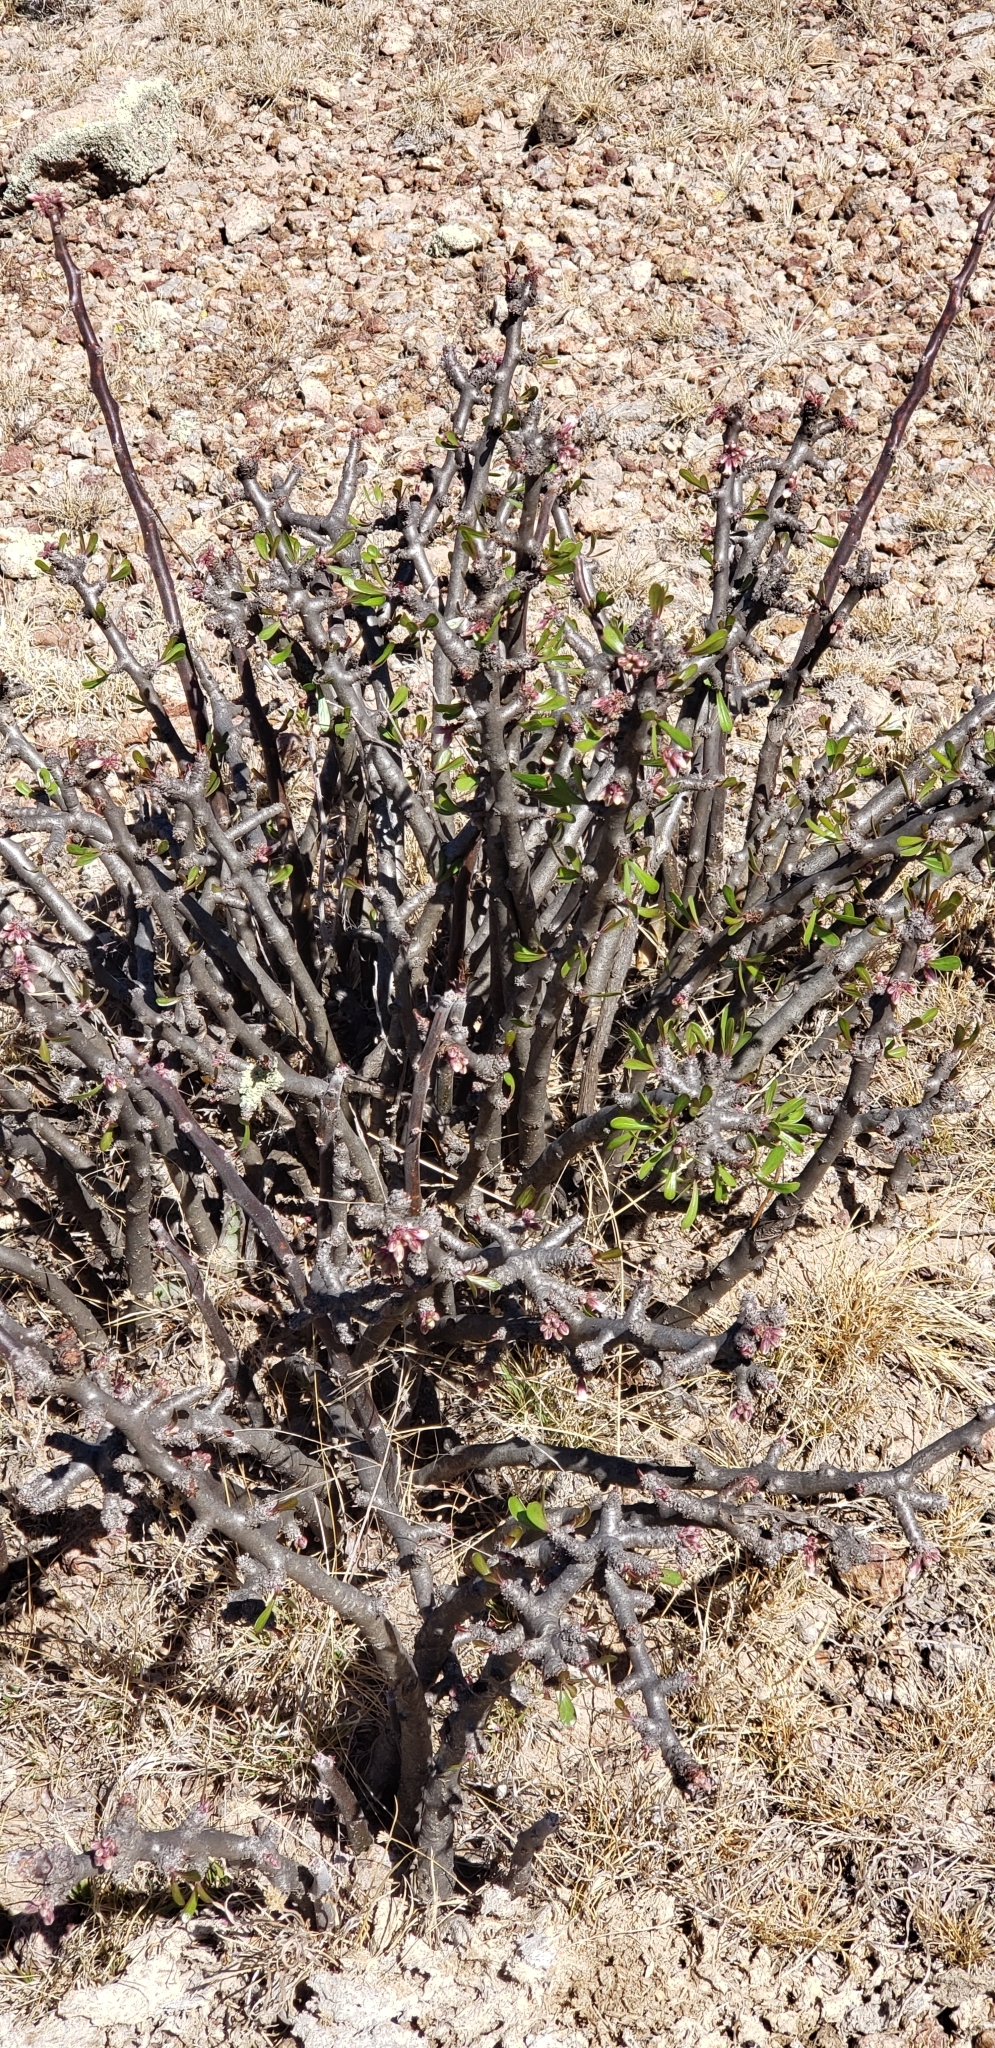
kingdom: Plantae
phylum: Tracheophyta
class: Magnoliopsida
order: Malpighiales
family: Euphorbiaceae
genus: Jatropha
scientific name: Jatropha dioica
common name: Leatherstem
